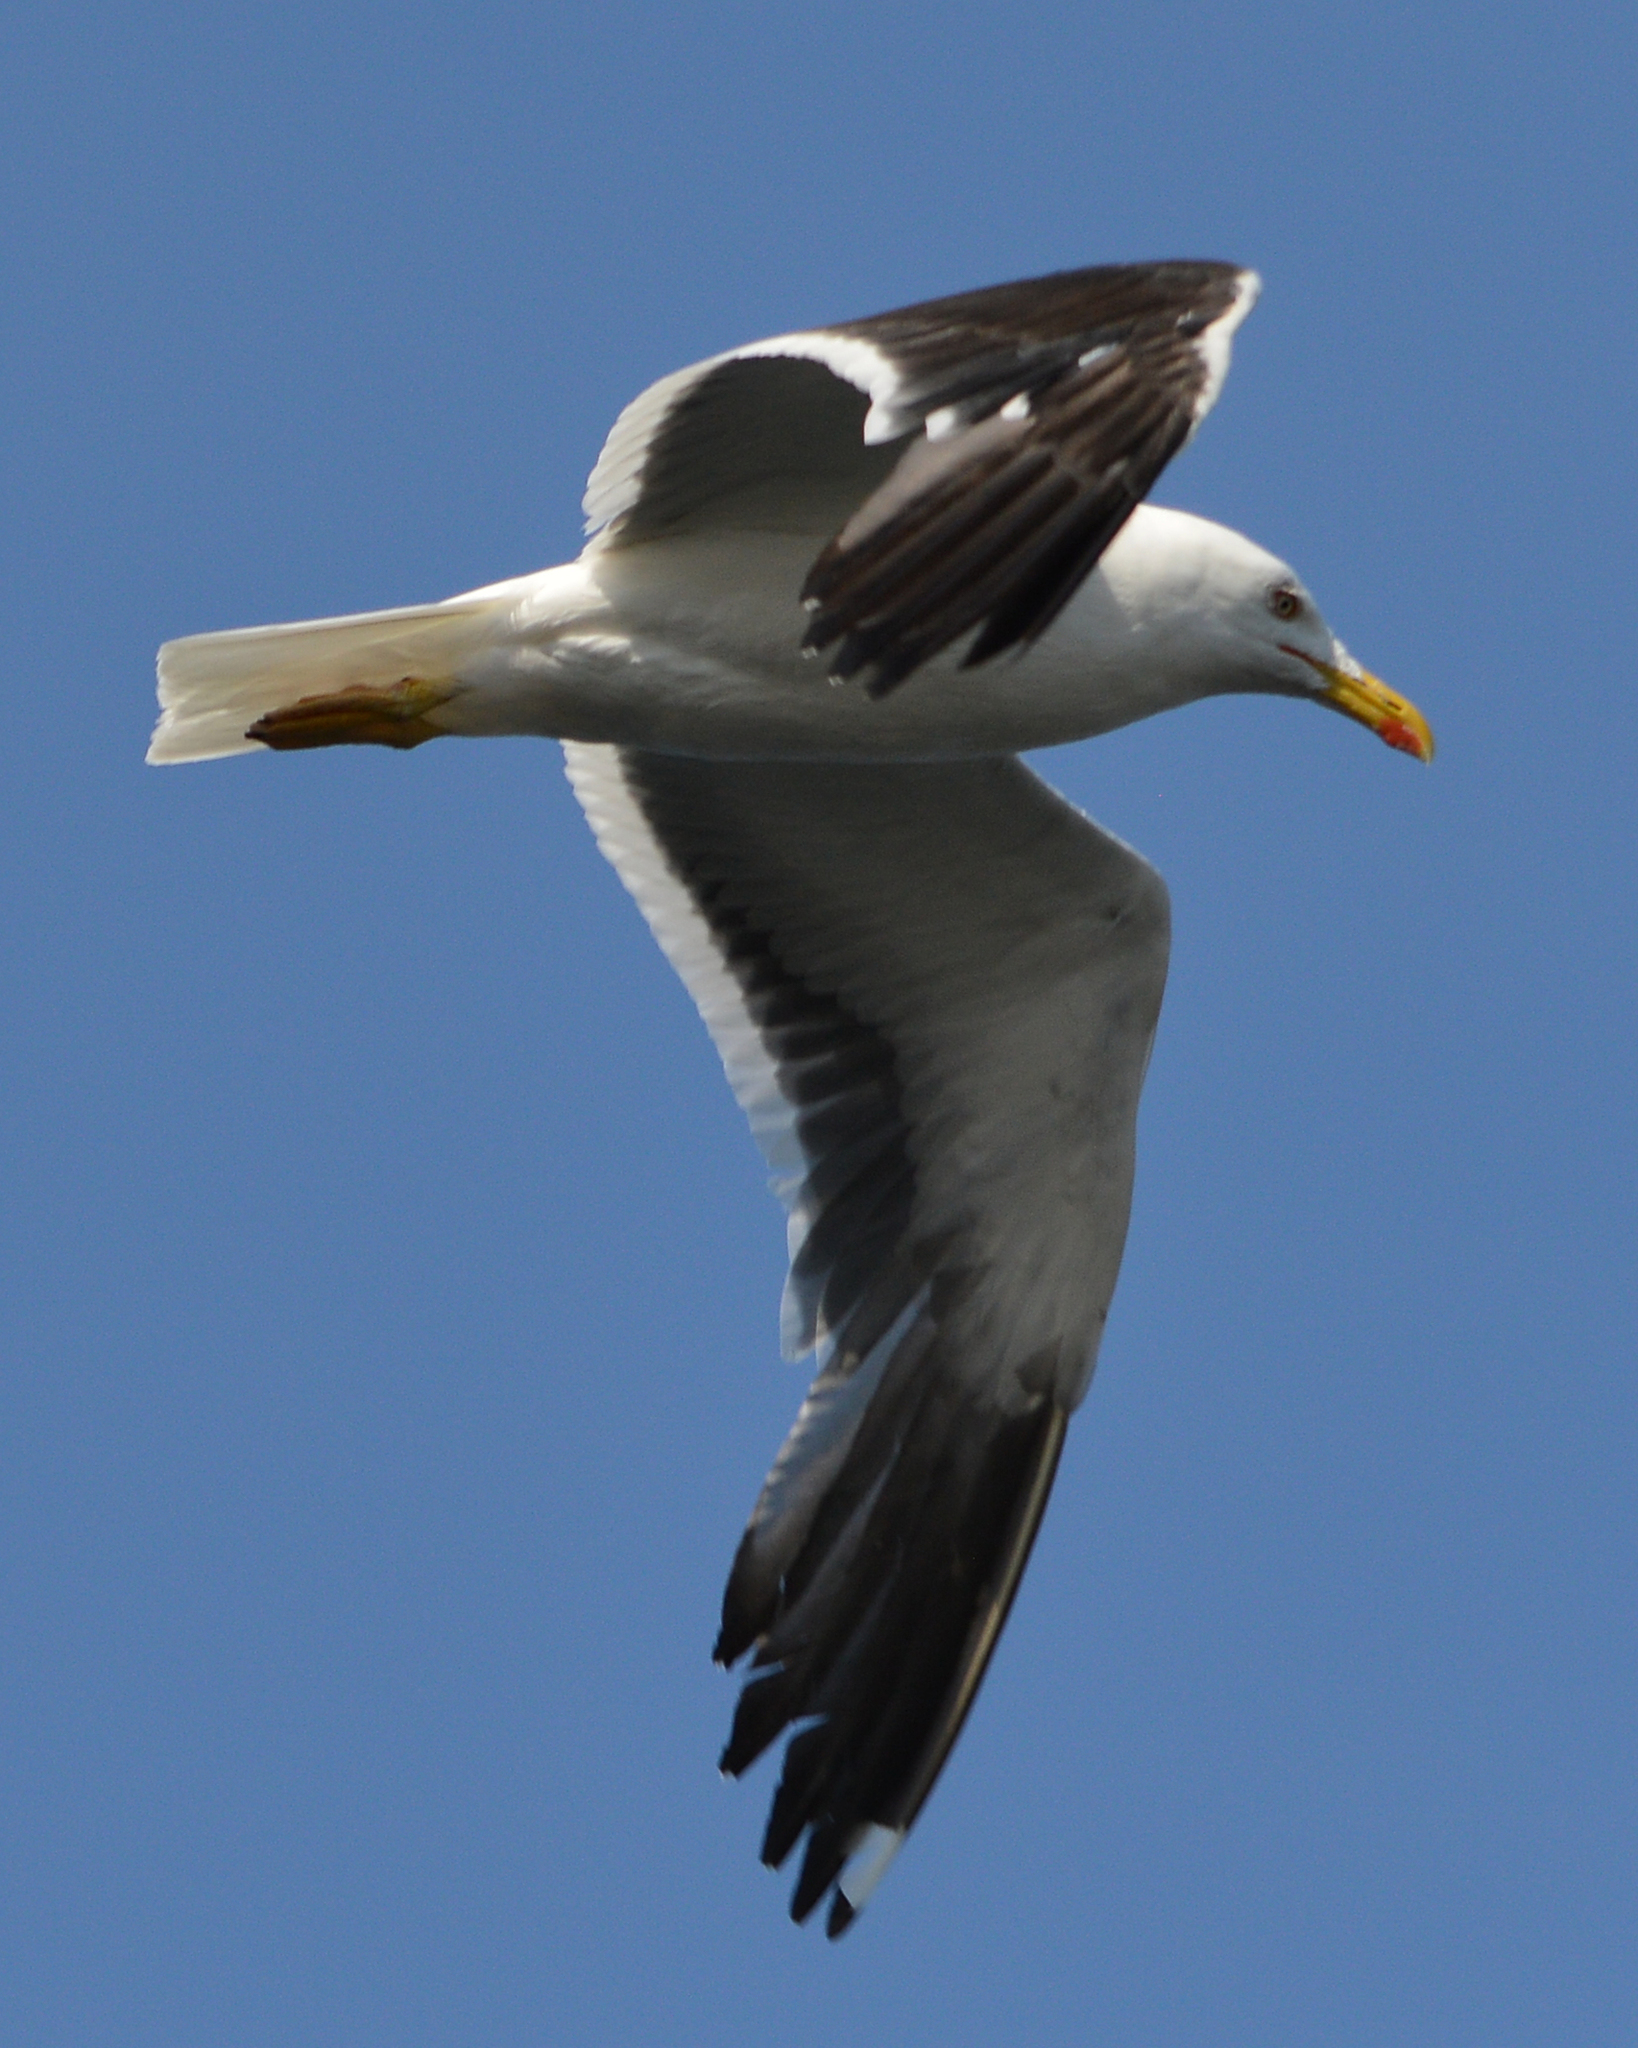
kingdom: Animalia
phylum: Chordata
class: Aves
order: Charadriiformes
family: Laridae
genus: Larus
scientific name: Larus fuscus
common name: Lesser black-backed gull
